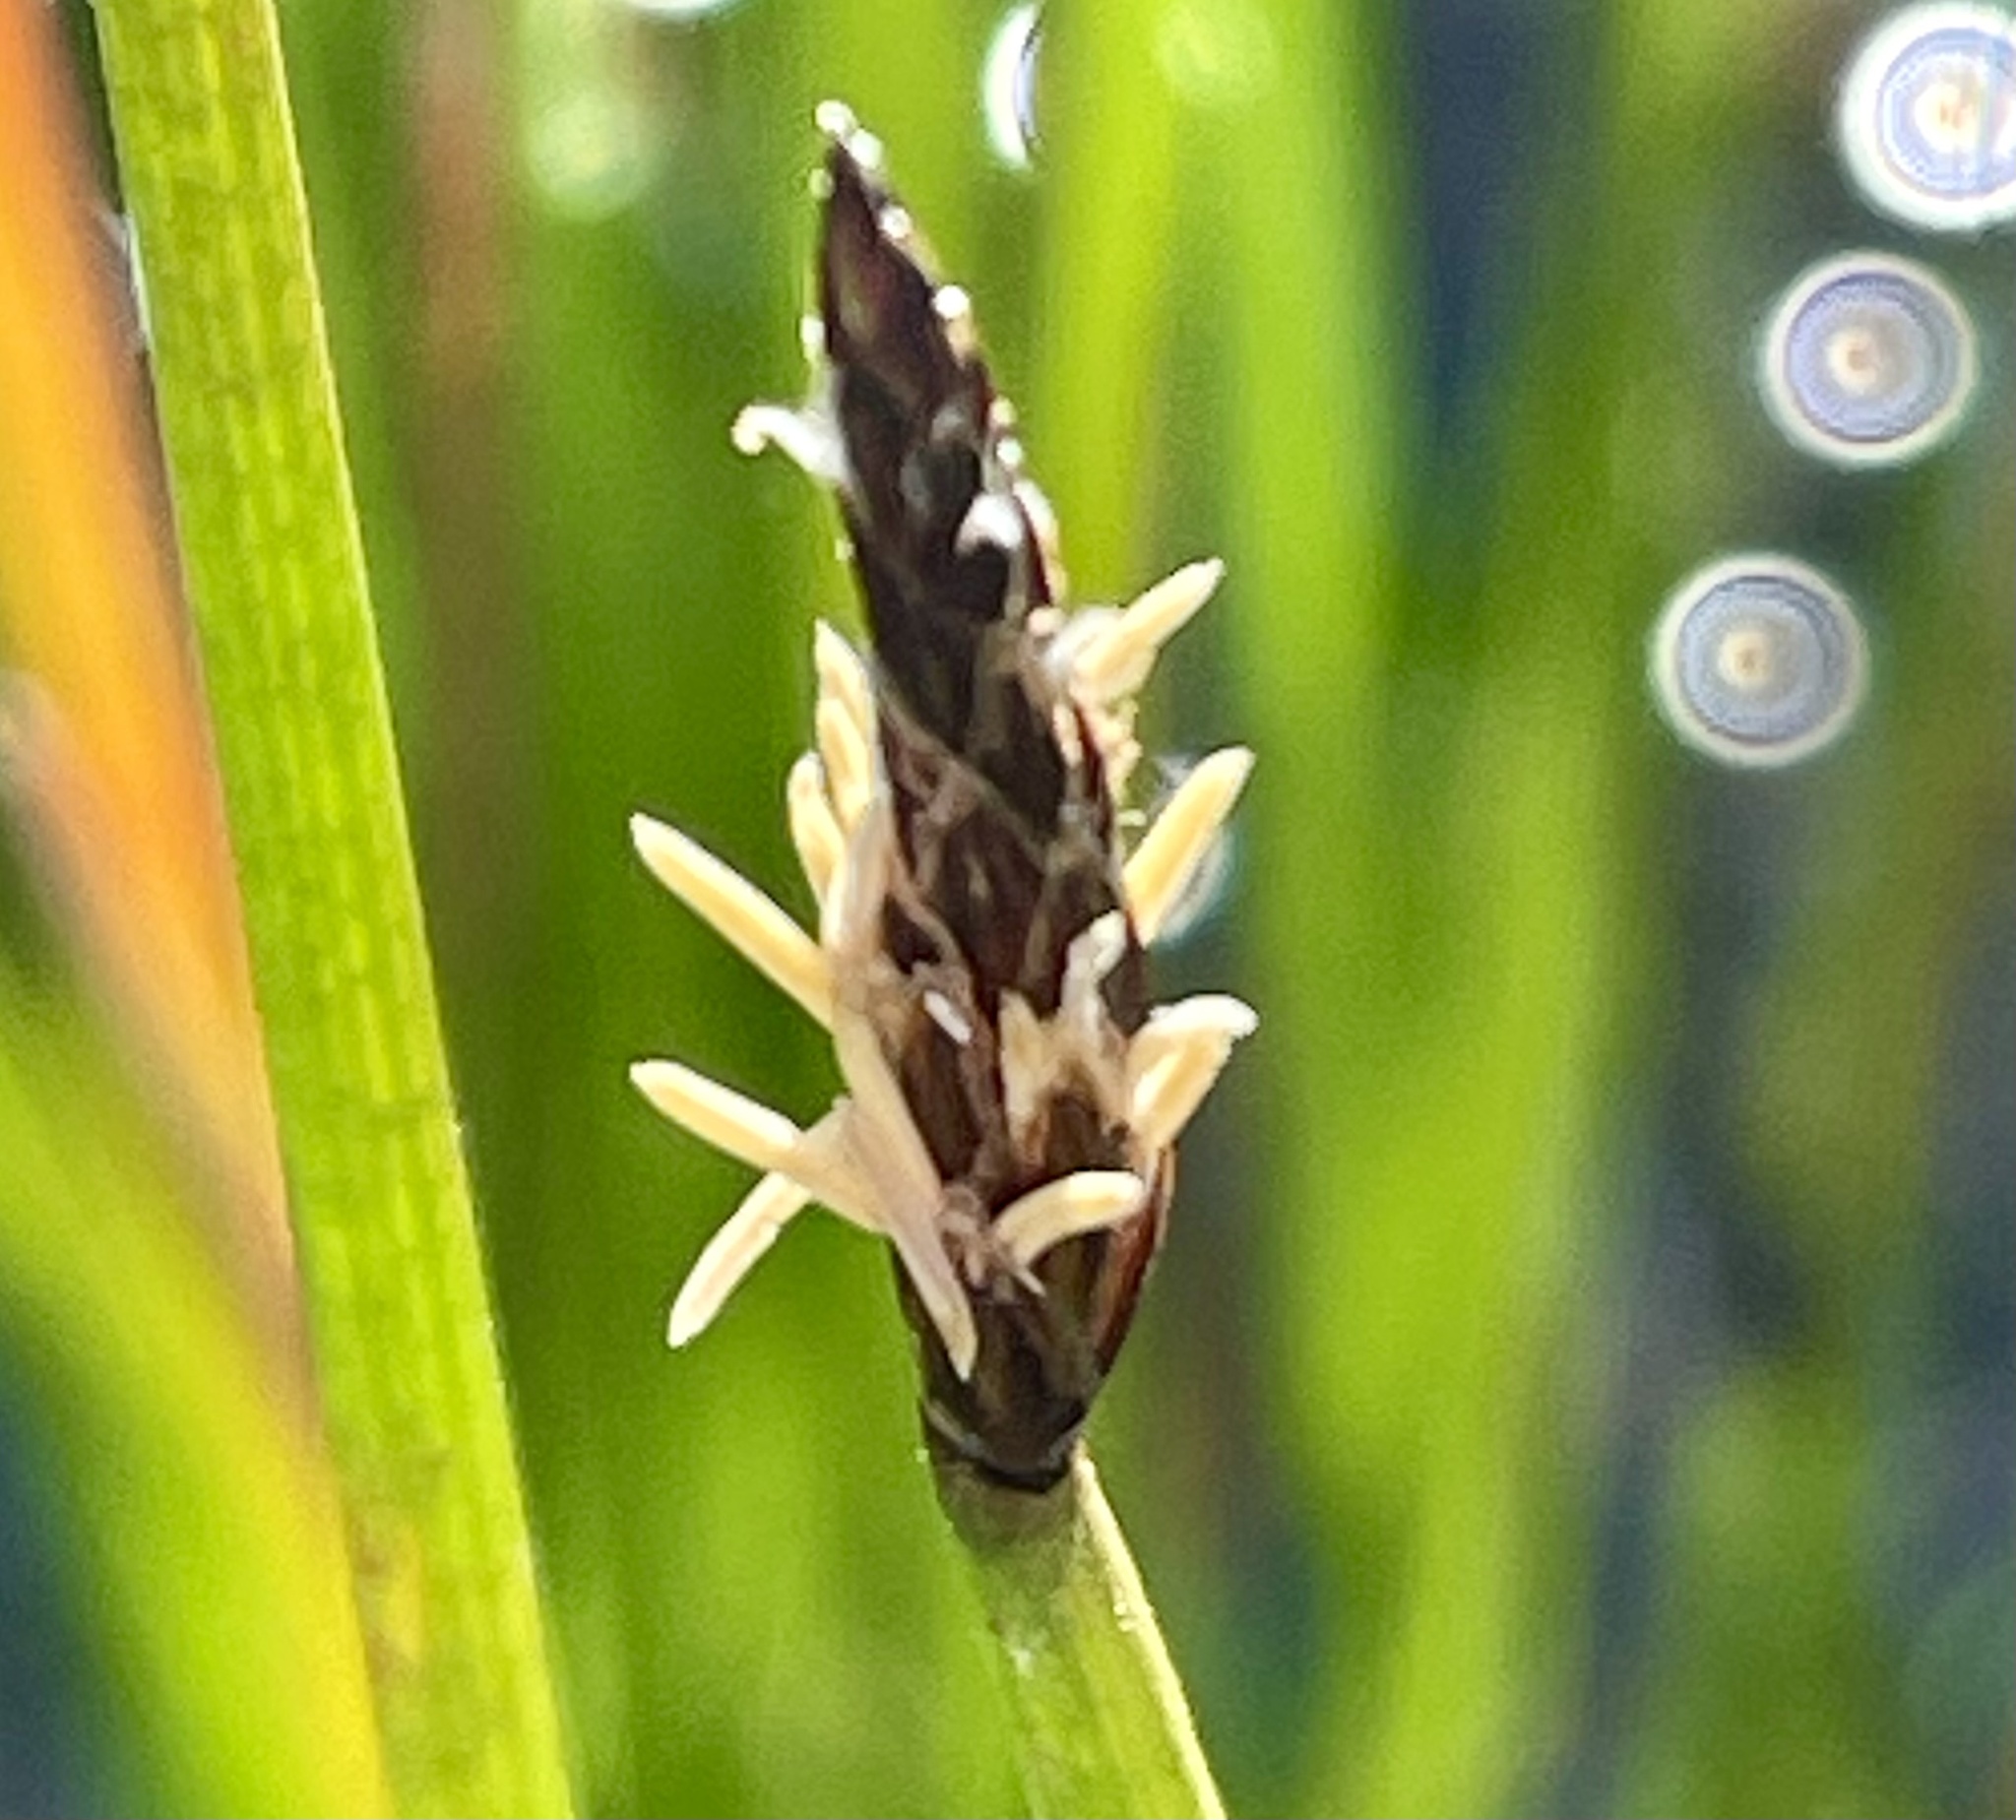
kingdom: Plantae
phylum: Tracheophyta
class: Liliopsida
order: Poales
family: Cyperaceae
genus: Eleocharis
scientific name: Eleocharis macrostachya
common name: Pale spikerush
